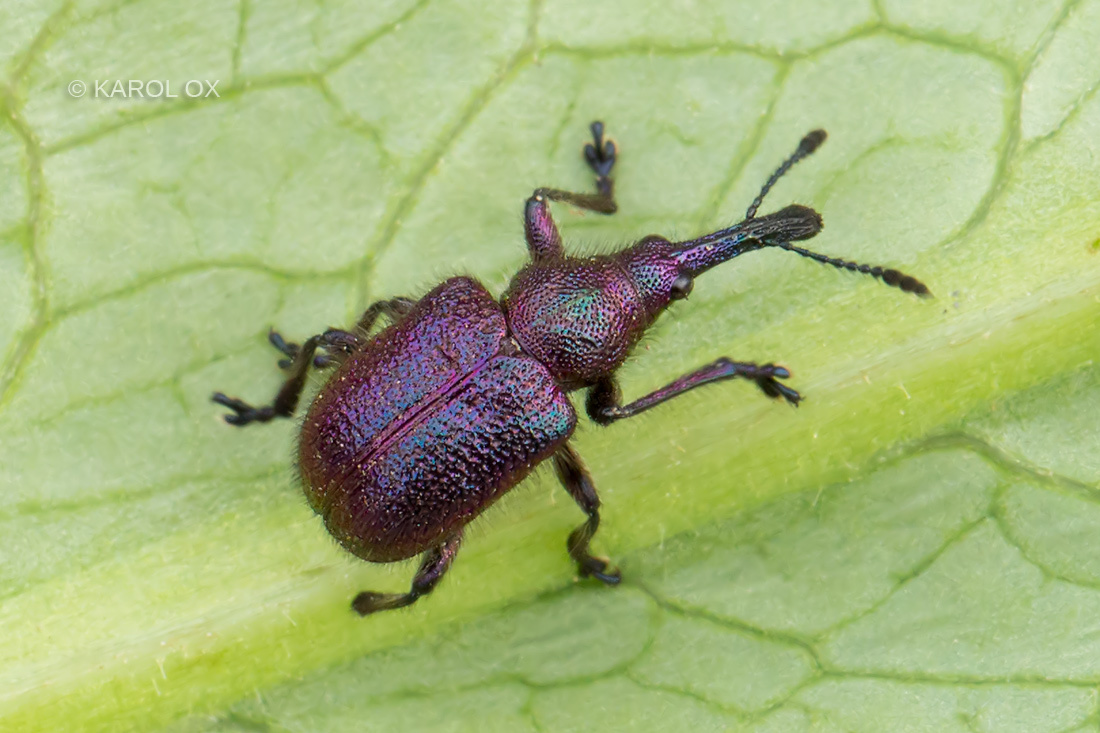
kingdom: Animalia
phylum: Arthropoda
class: Insecta
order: Coleoptera
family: Attelabidae
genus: Rhynchites
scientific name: Rhynchites bacchus
